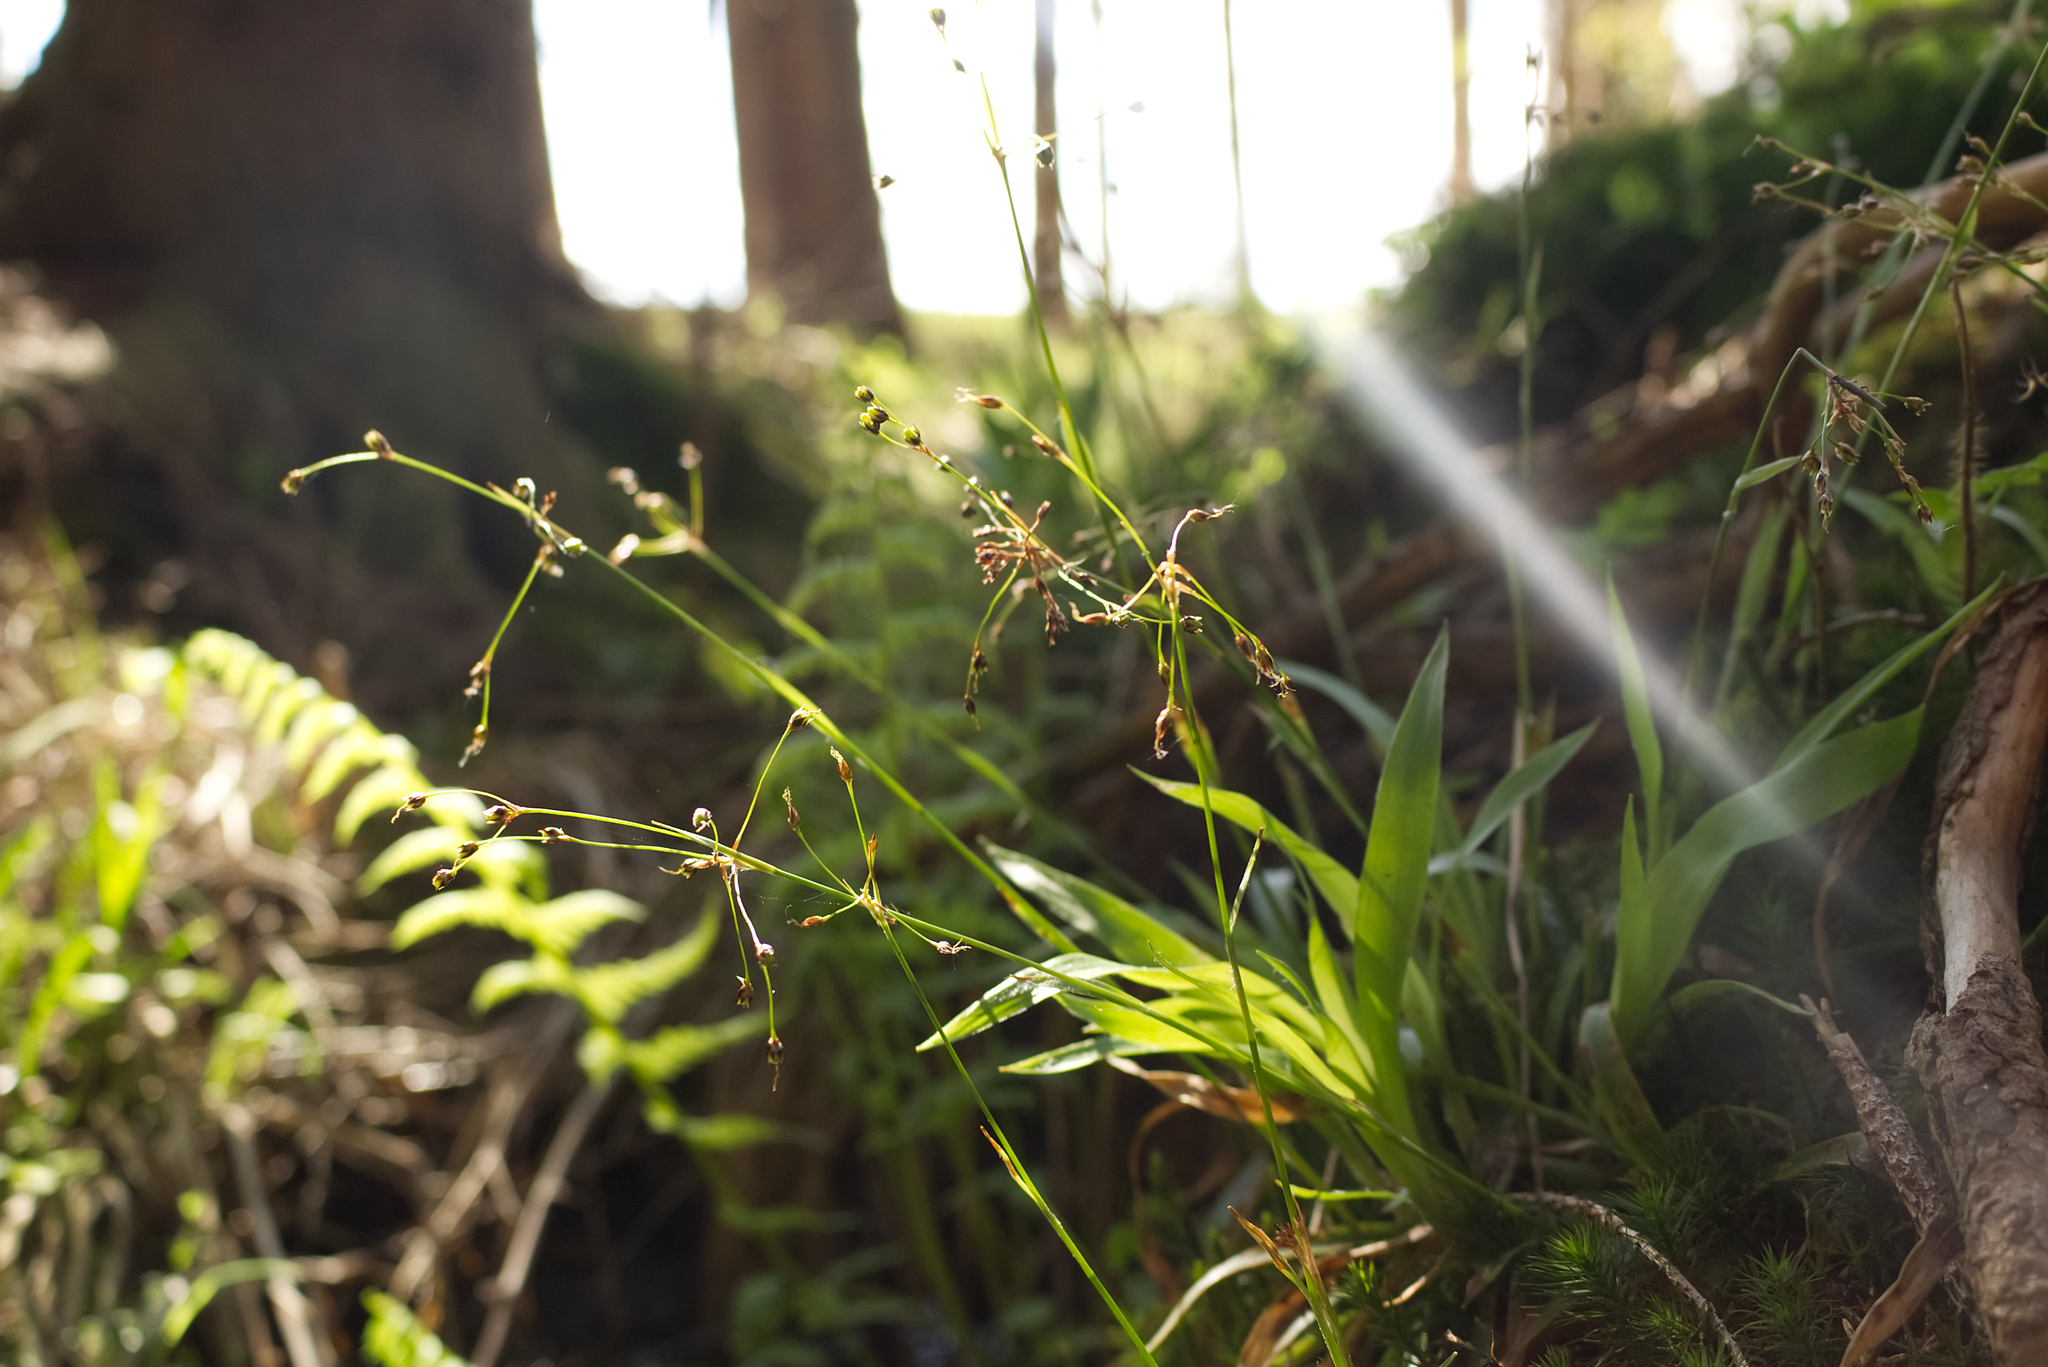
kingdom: Plantae
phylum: Tracheophyta
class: Liliopsida
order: Poales
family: Juncaceae
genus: Luzula
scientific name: Luzula pilosa
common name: Hairy wood-rush
